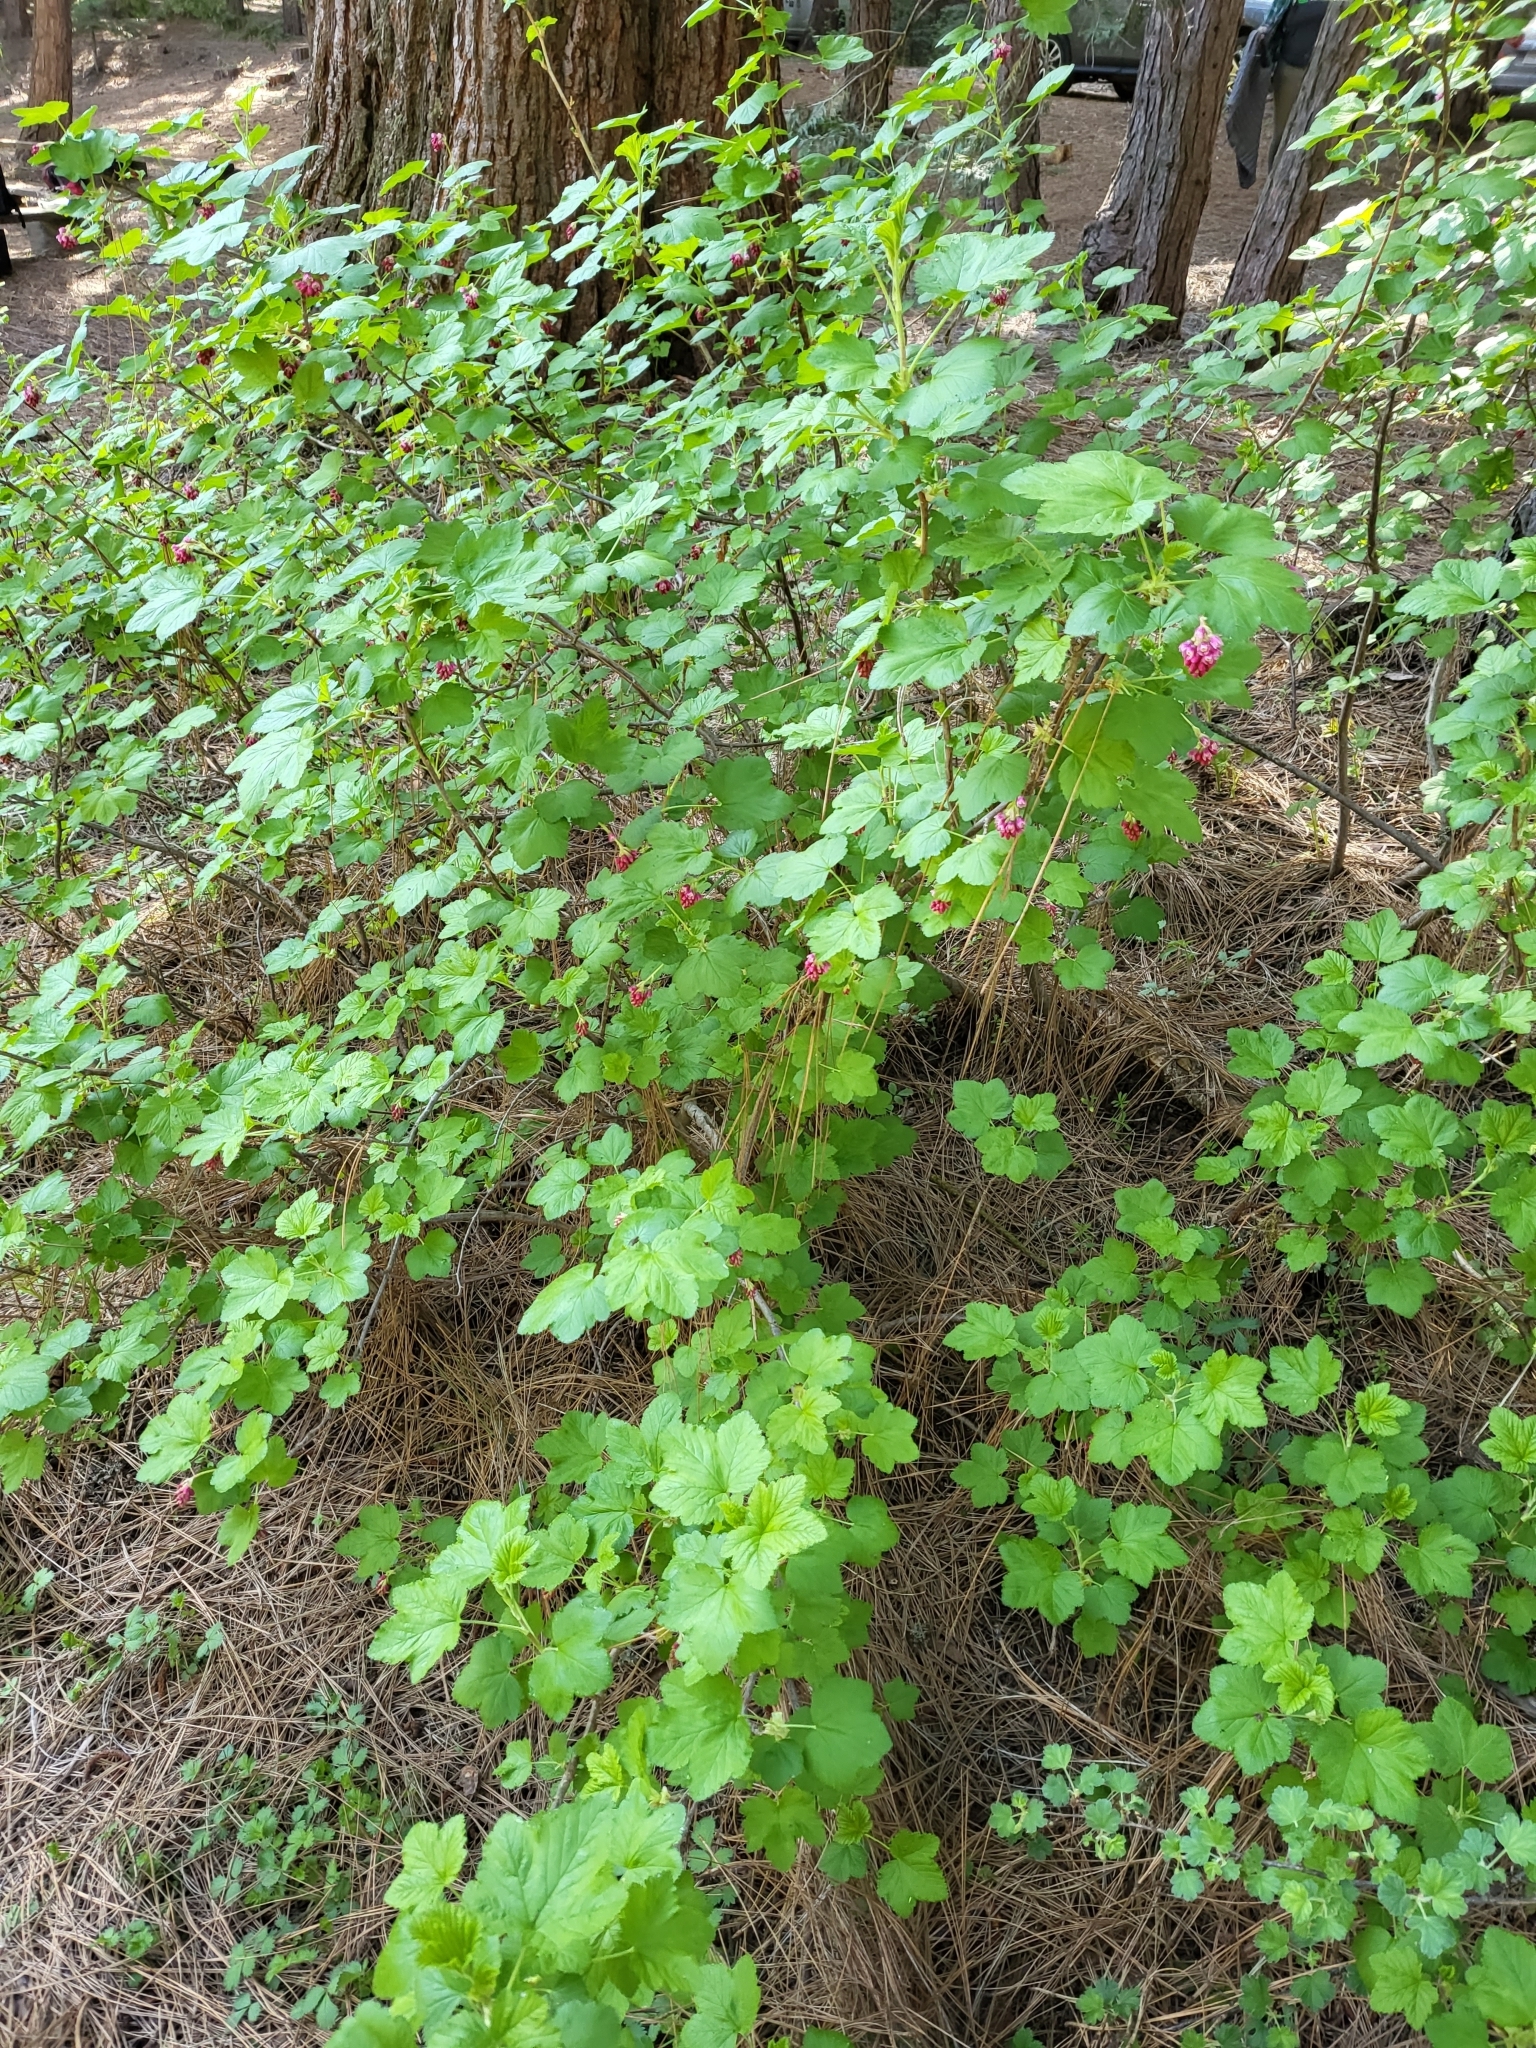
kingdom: Plantae
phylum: Tracheophyta
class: Magnoliopsida
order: Saxifragales
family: Grossulariaceae
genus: Ribes
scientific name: Ribes nevadense
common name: Mountain pink currant
